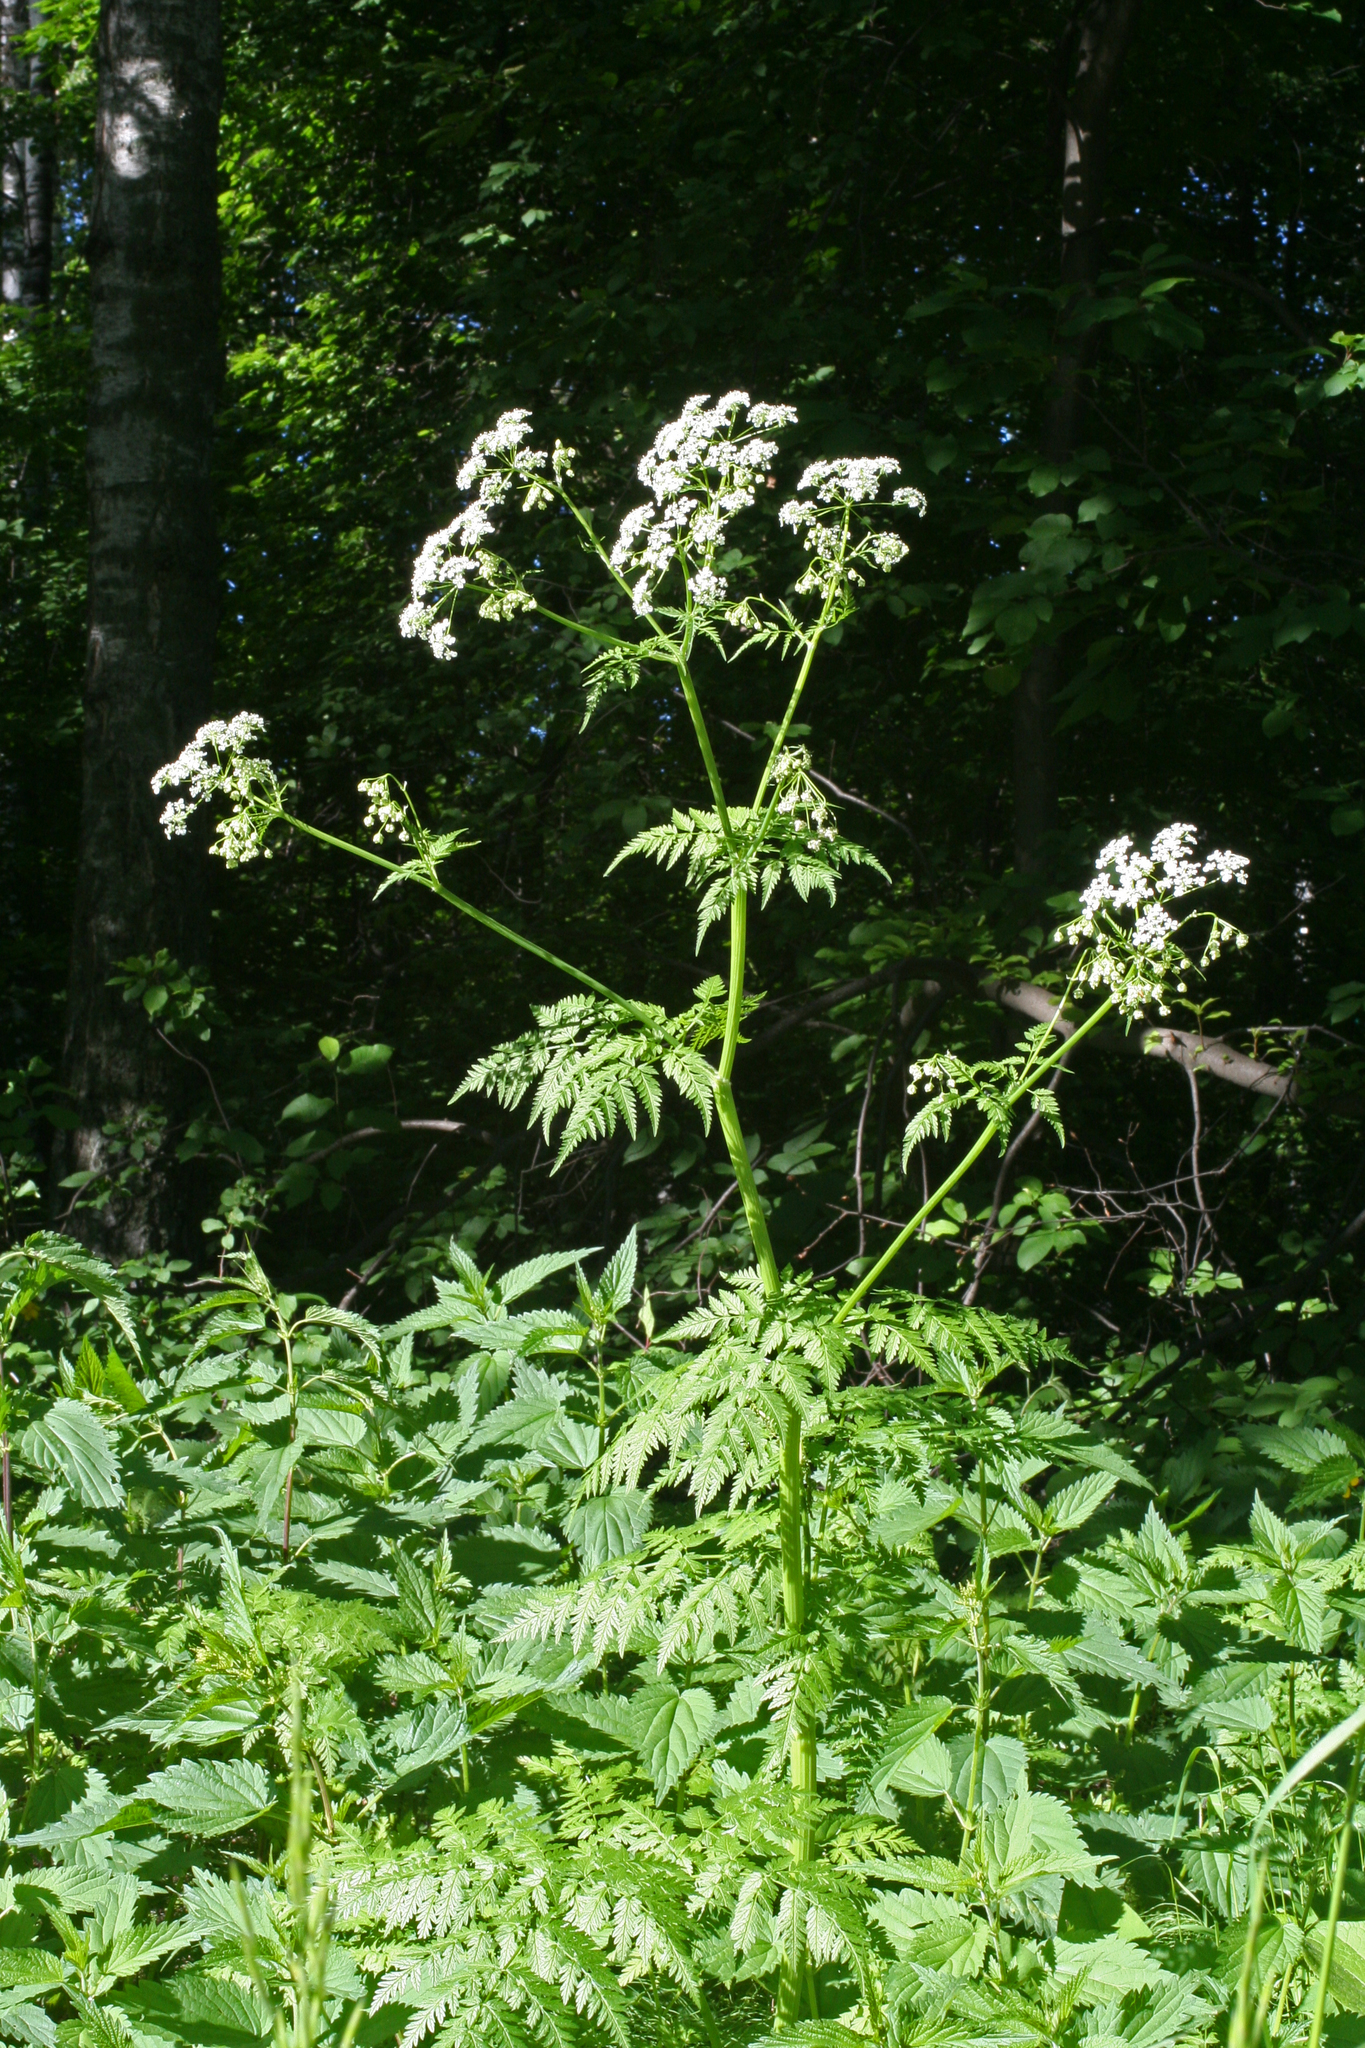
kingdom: Plantae
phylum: Tracheophyta
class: Magnoliopsida
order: Apiales
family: Apiaceae
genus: Anthriscus
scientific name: Anthriscus sylvestris
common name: Cow parsley
